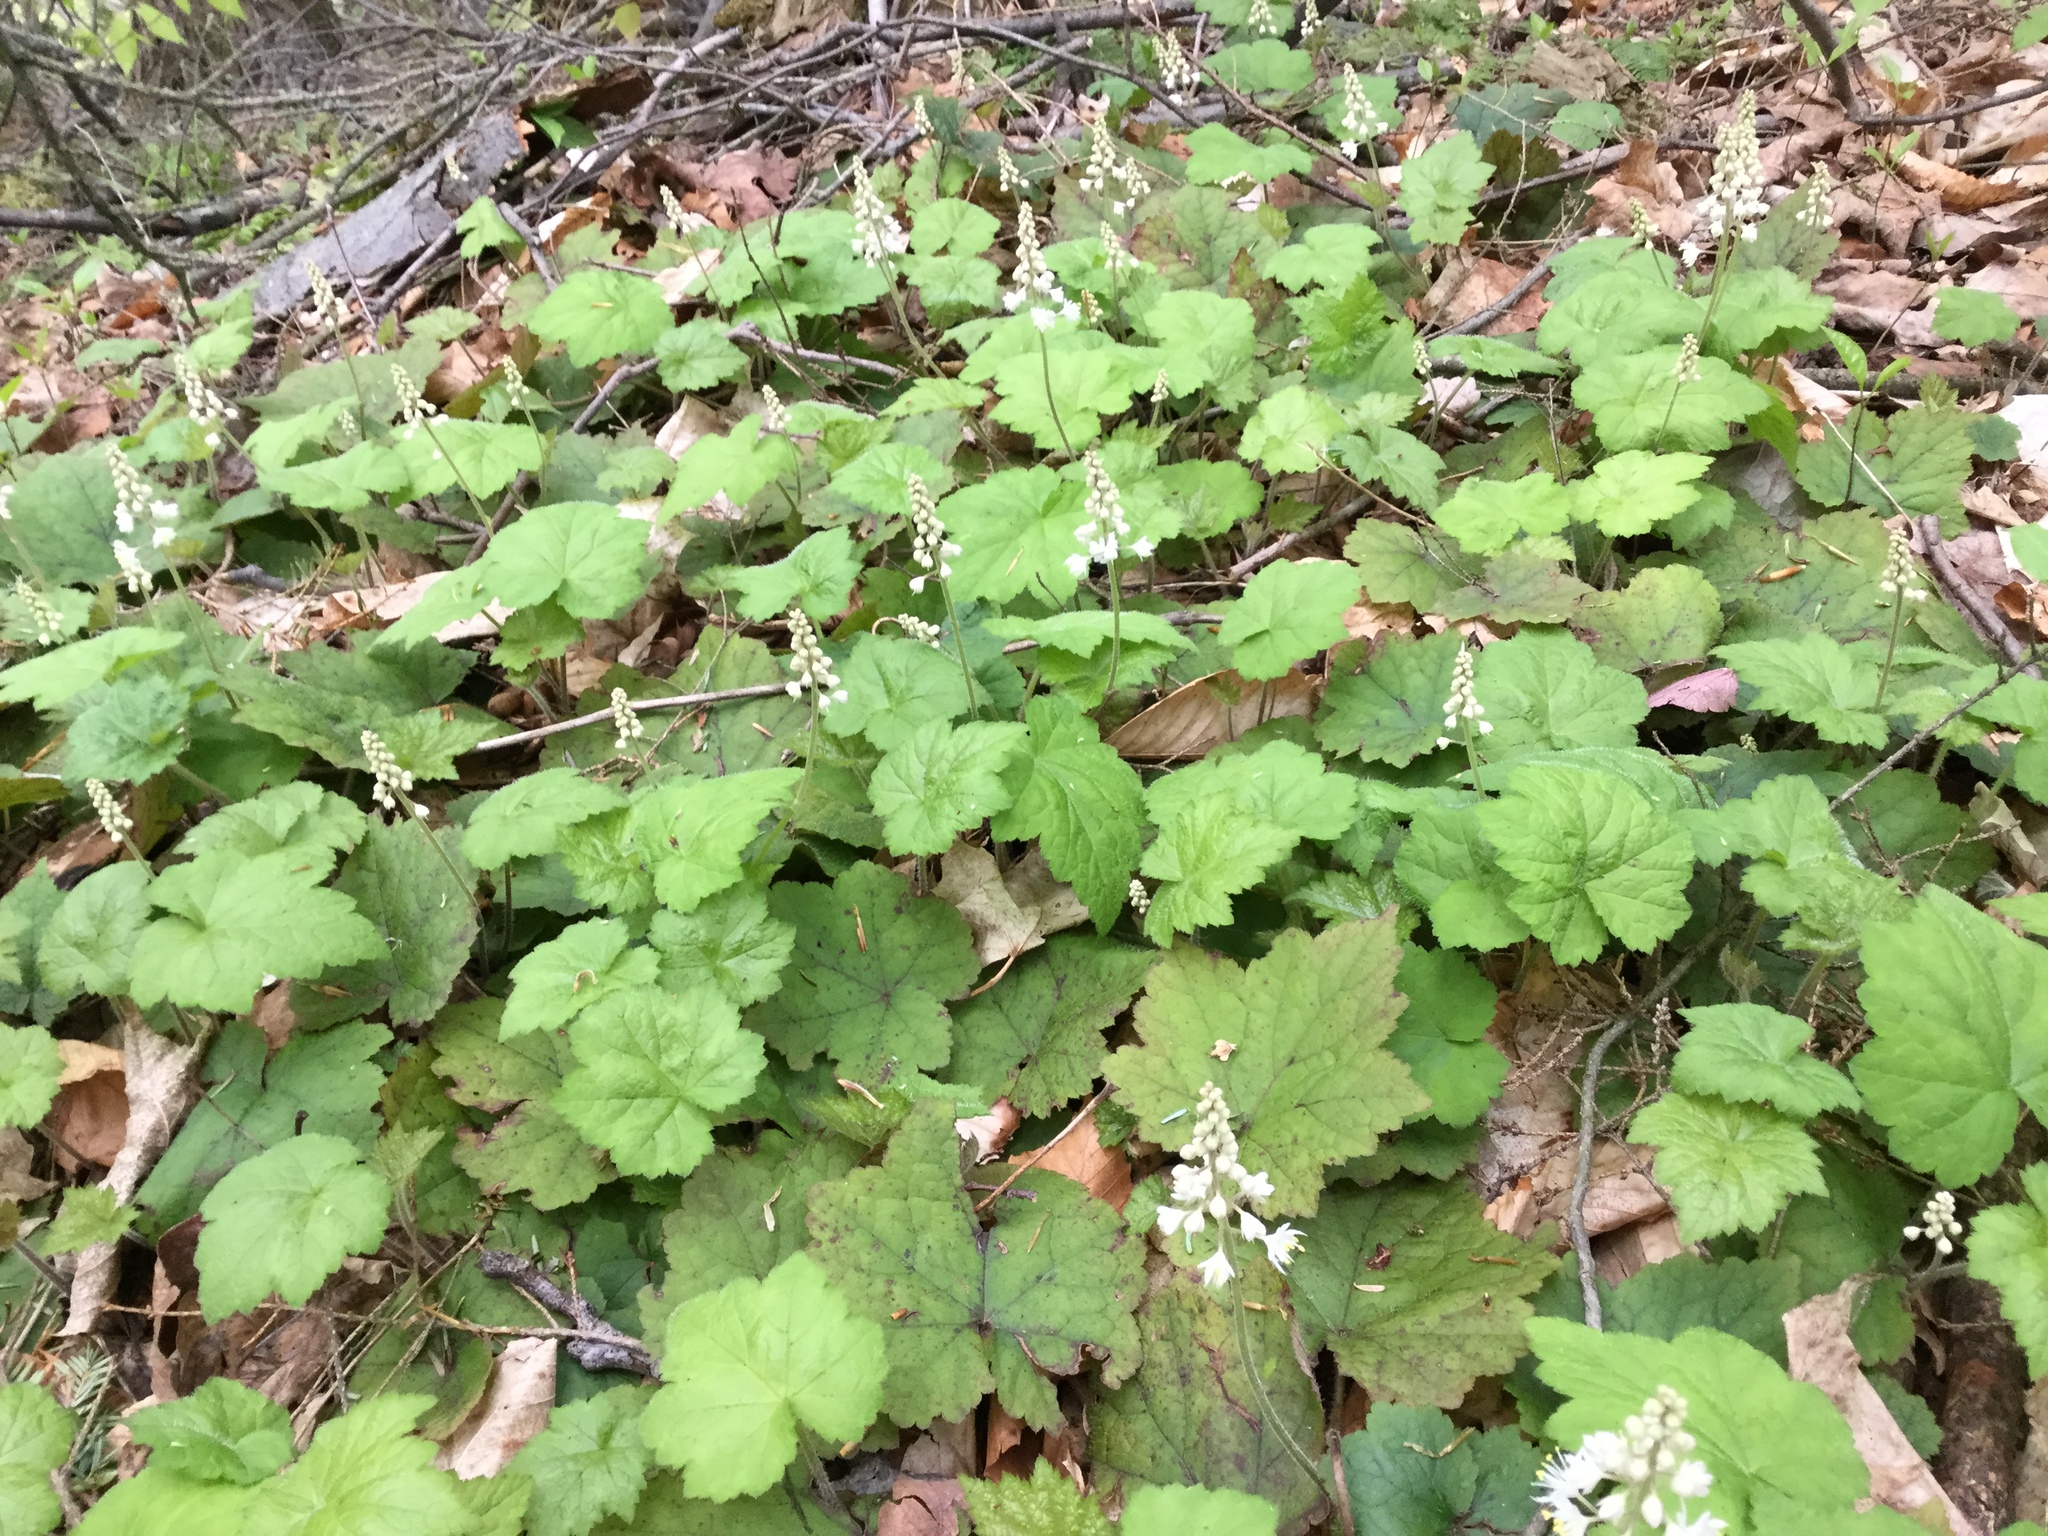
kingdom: Plantae
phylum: Tracheophyta
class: Magnoliopsida
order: Saxifragales
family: Saxifragaceae
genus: Tiarella
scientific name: Tiarella stolonifera
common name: Stoloniferous foamflower
